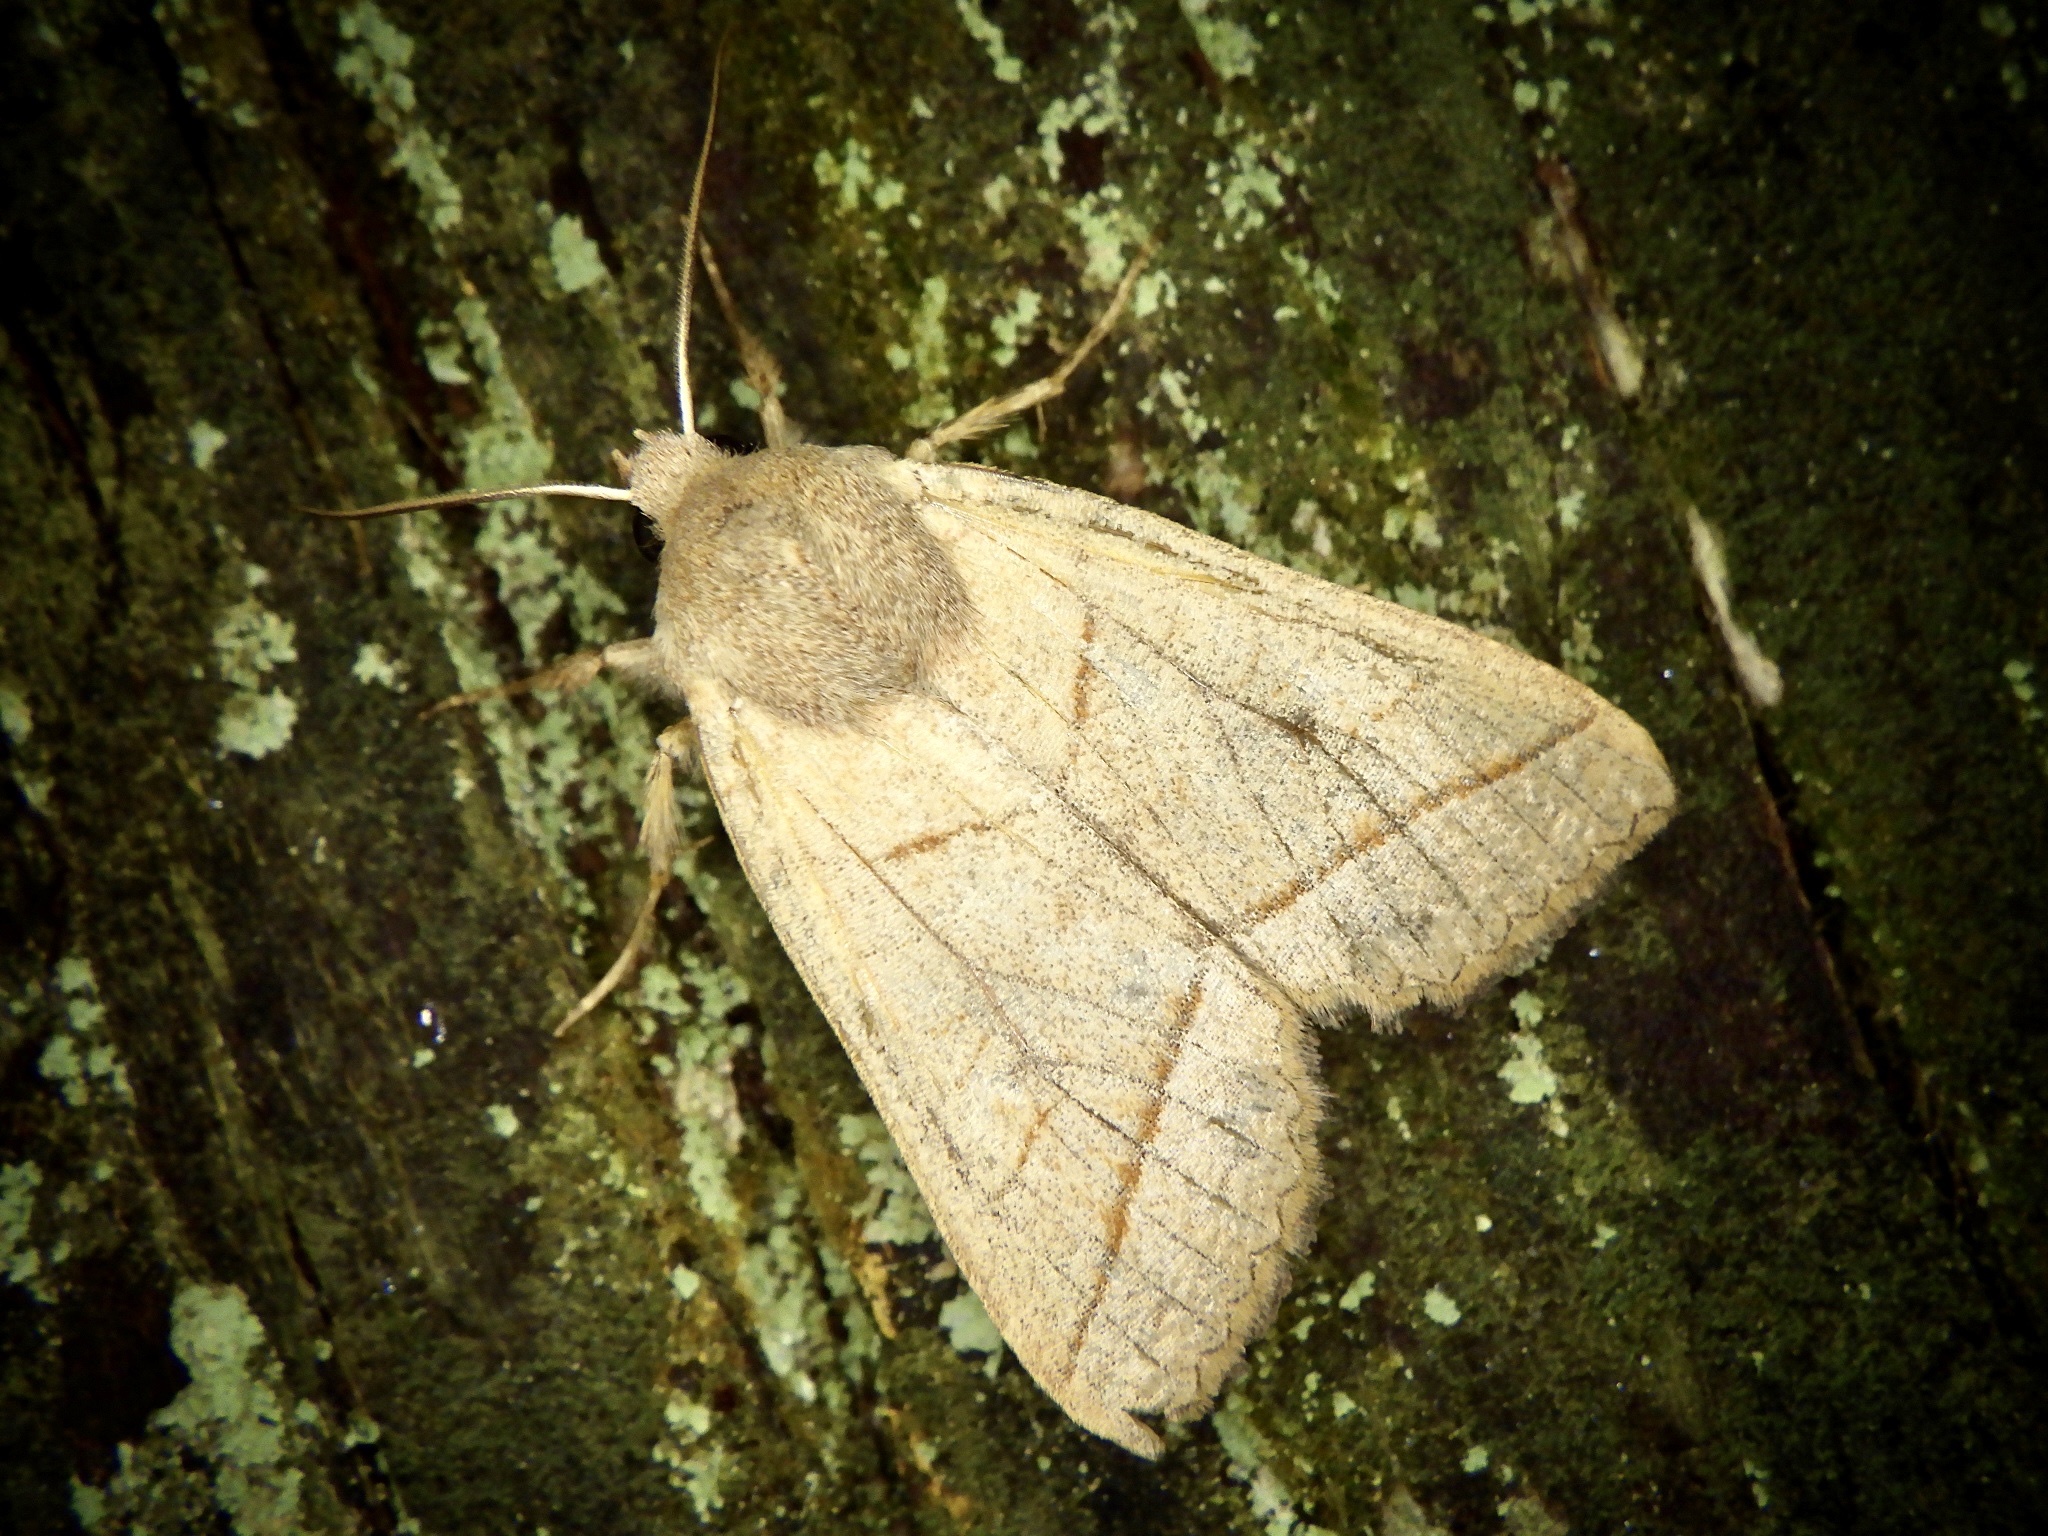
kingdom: Animalia
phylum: Arthropoda
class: Insecta
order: Lepidoptera
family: Noctuidae
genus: Telorta
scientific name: Telorta divergens
